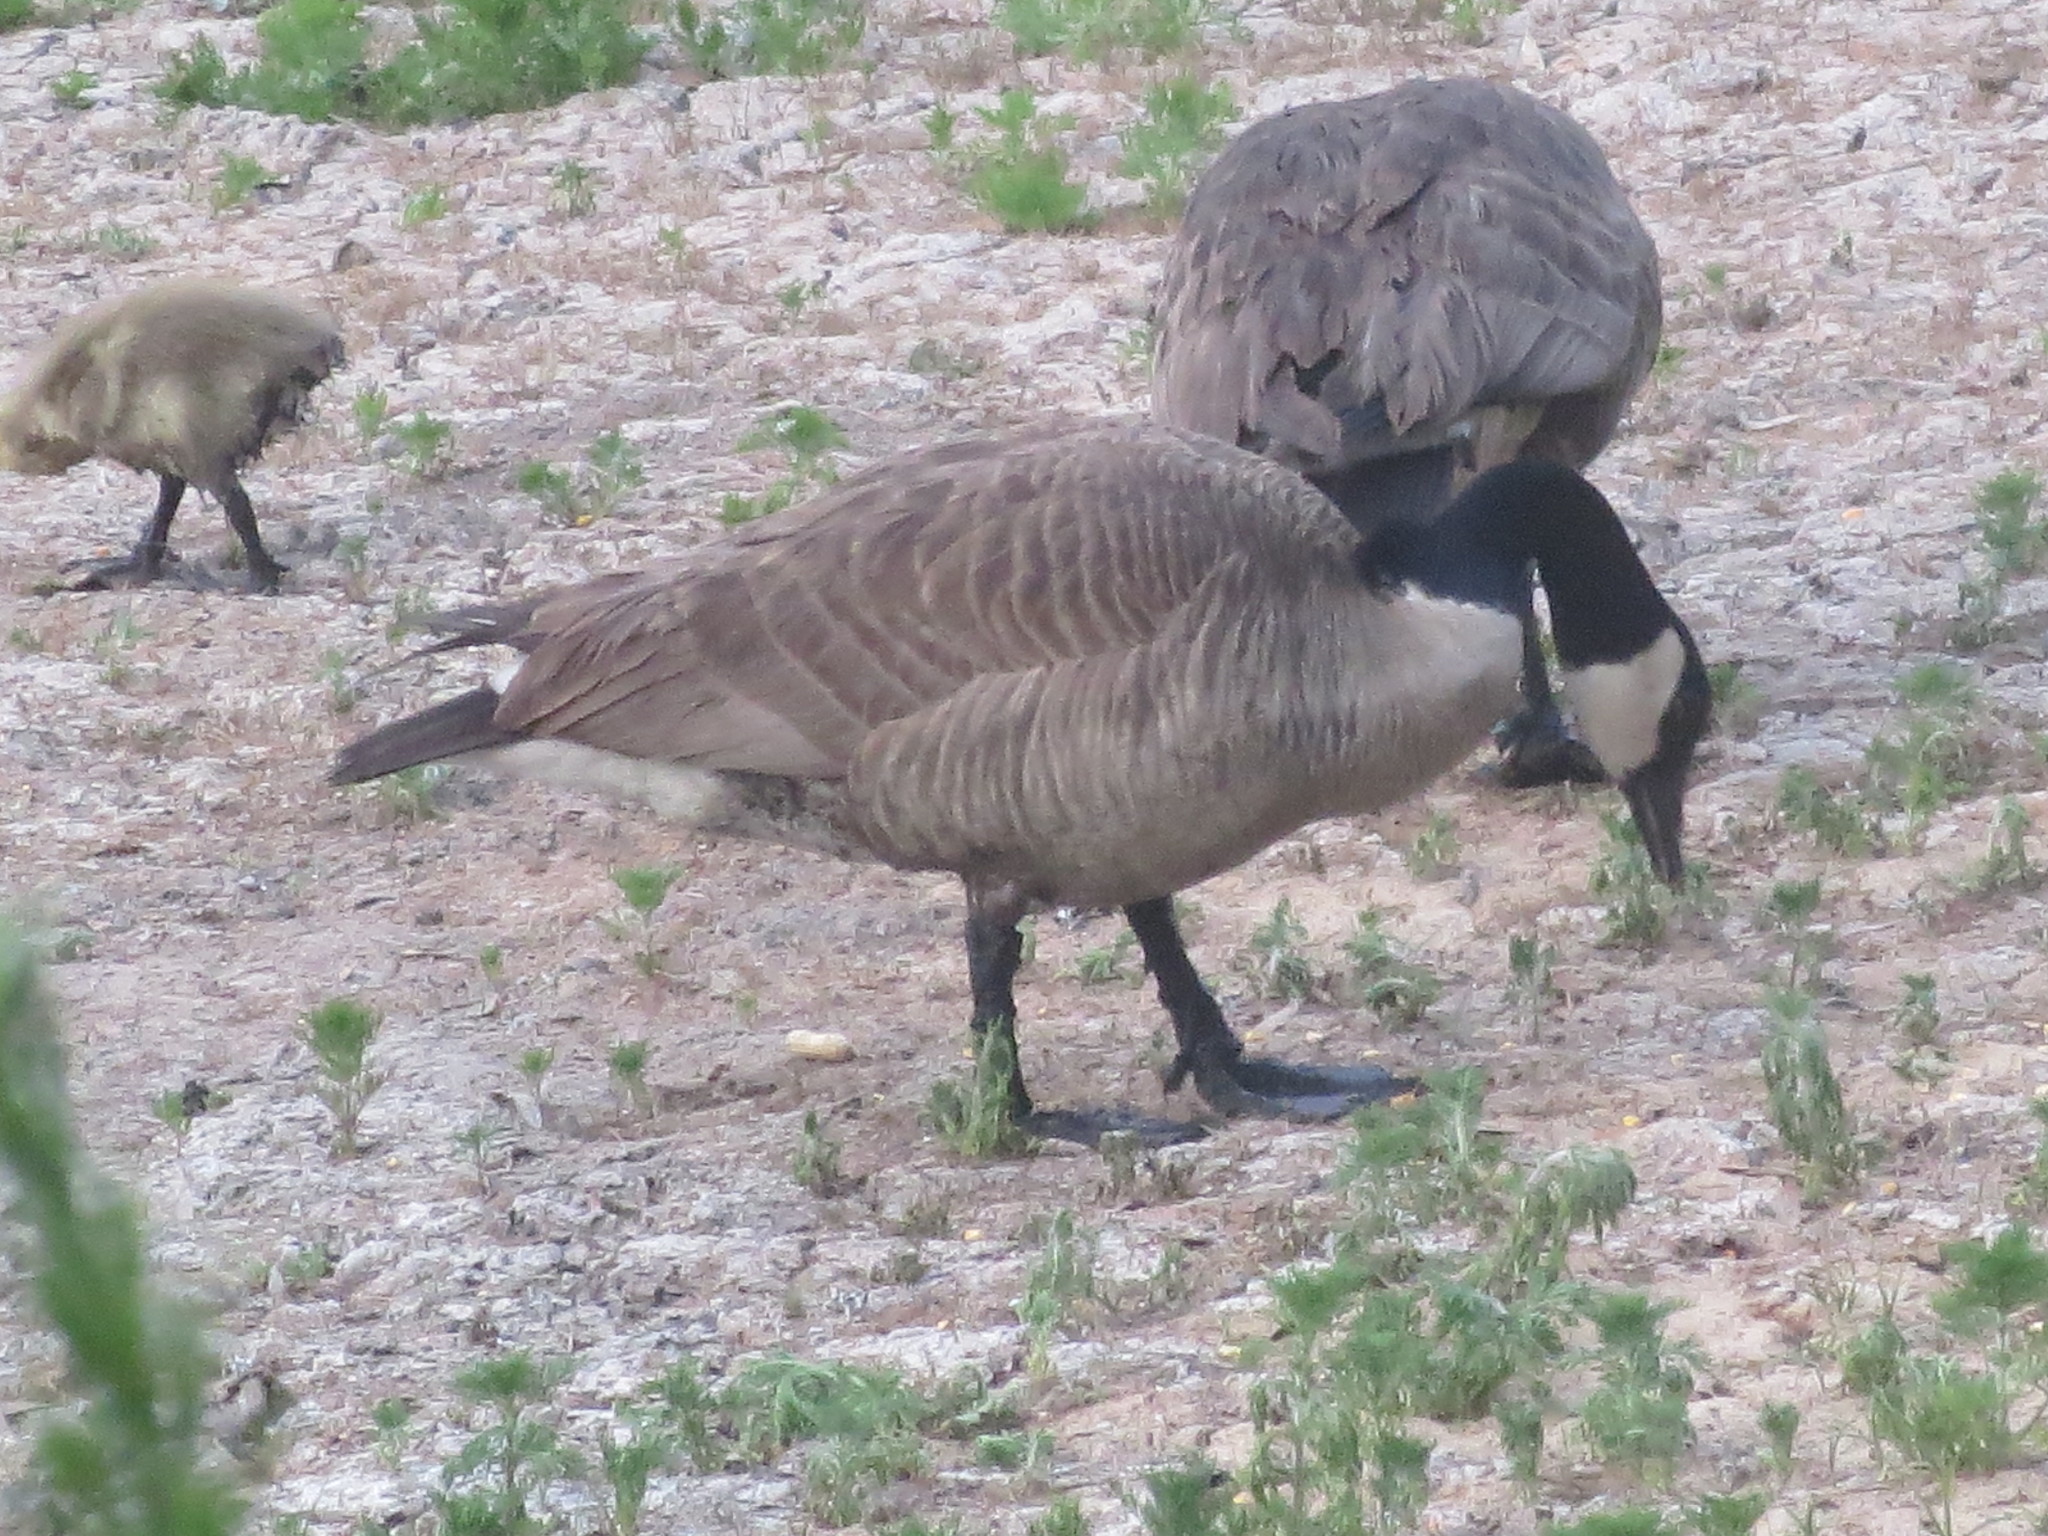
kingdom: Animalia
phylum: Chordata
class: Aves
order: Anseriformes
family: Anatidae
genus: Branta
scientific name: Branta canadensis
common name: Canada goose
